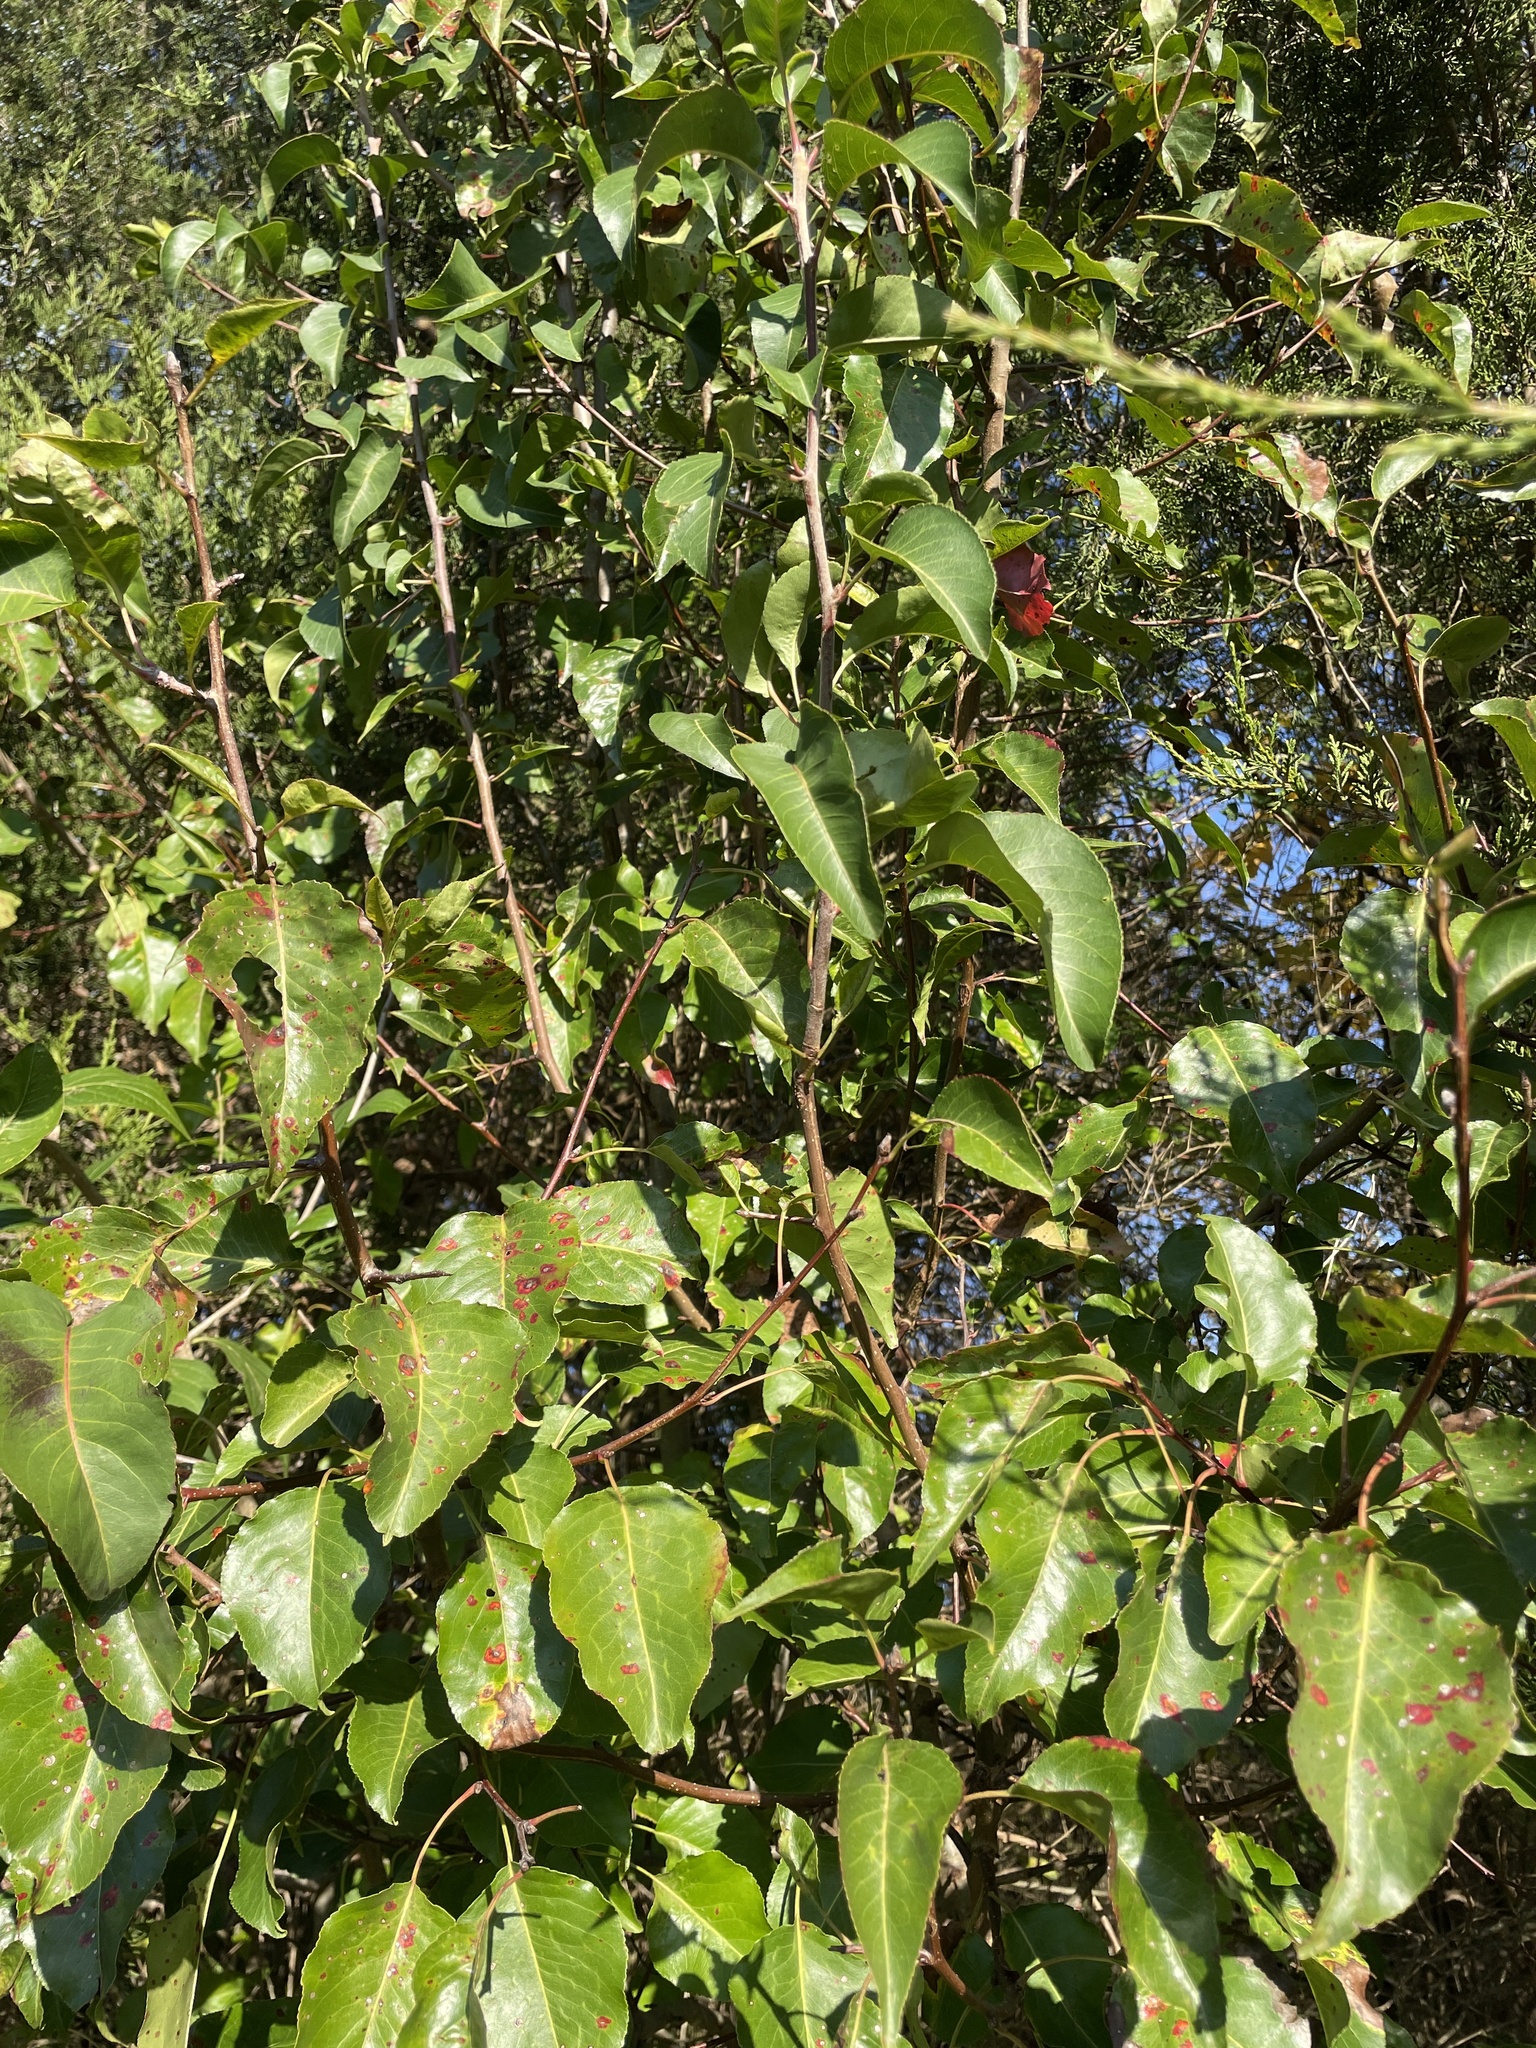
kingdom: Plantae
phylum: Tracheophyta
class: Magnoliopsida
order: Rosales
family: Rosaceae
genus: Pyrus
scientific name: Pyrus calleryana
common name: Callery pear
